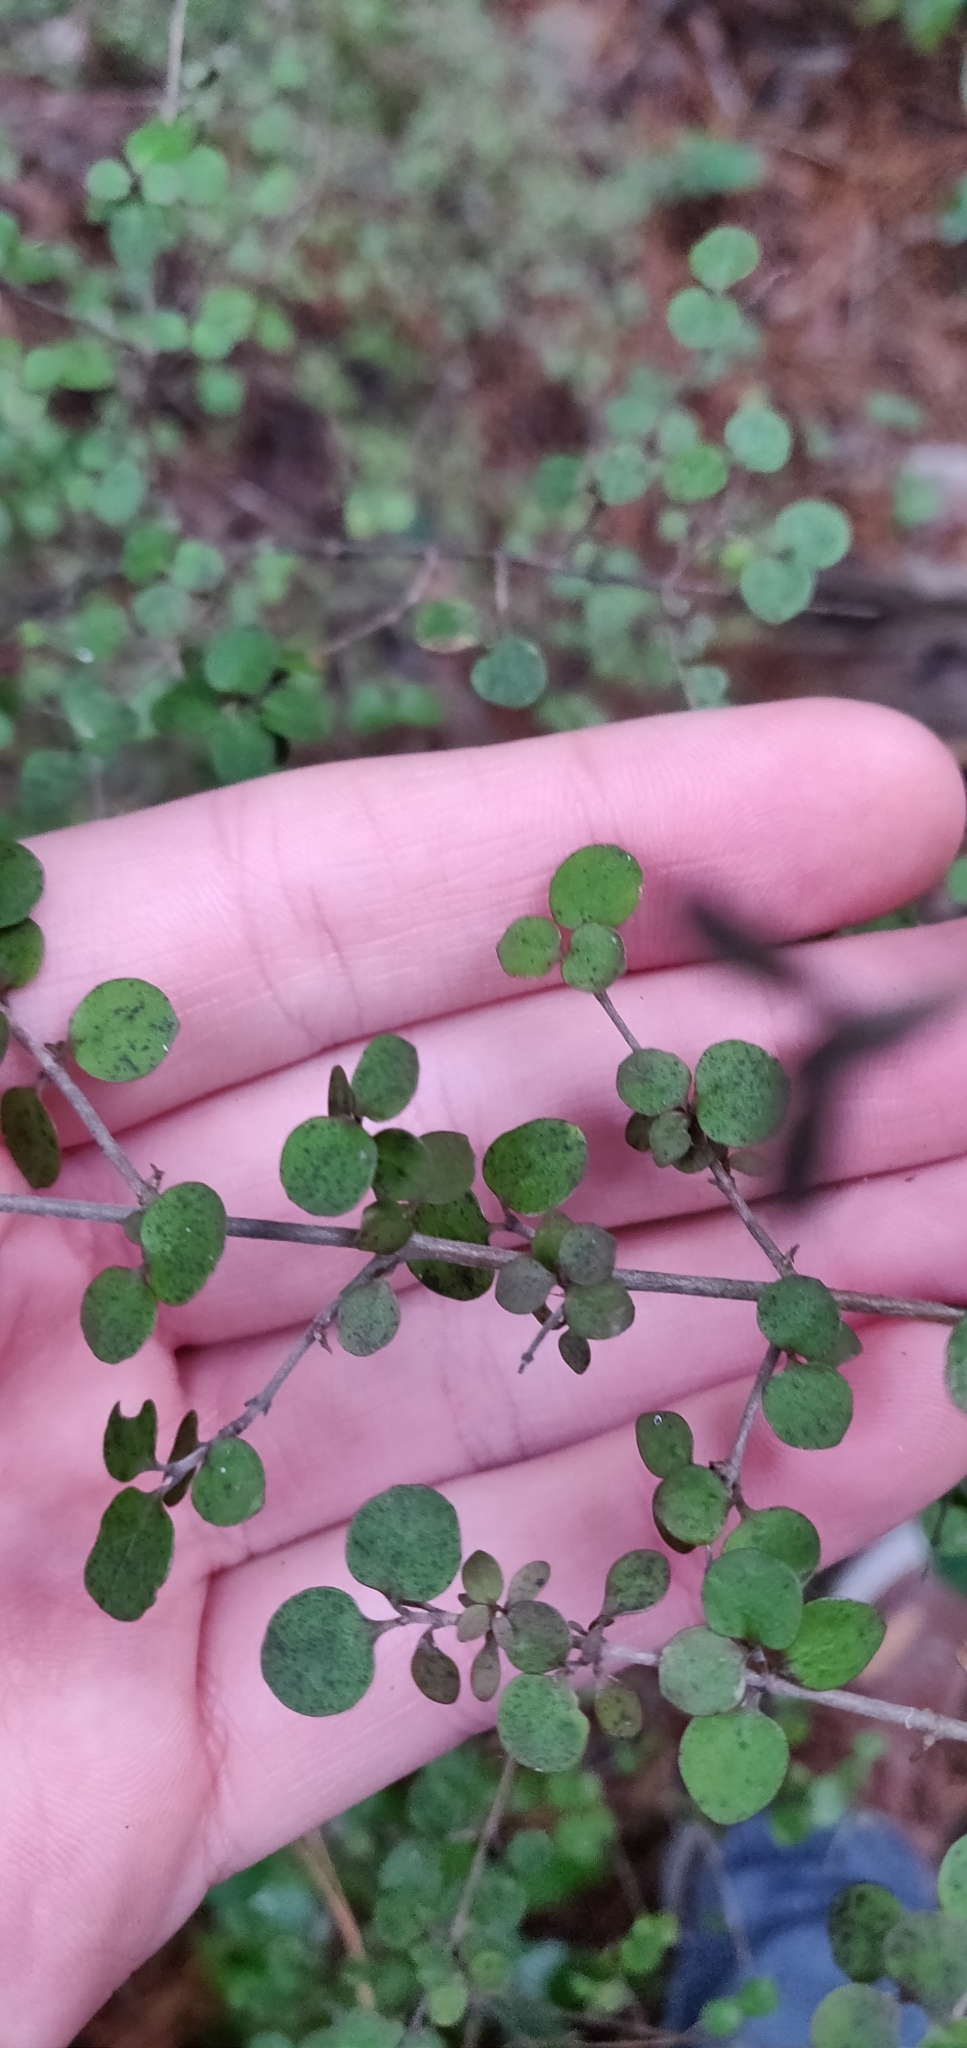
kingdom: Plantae
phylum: Tracheophyta
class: Magnoliopsida
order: Gentianales
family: Rubiaceae
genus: Coprosma
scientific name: Coprosma rhamnoides
